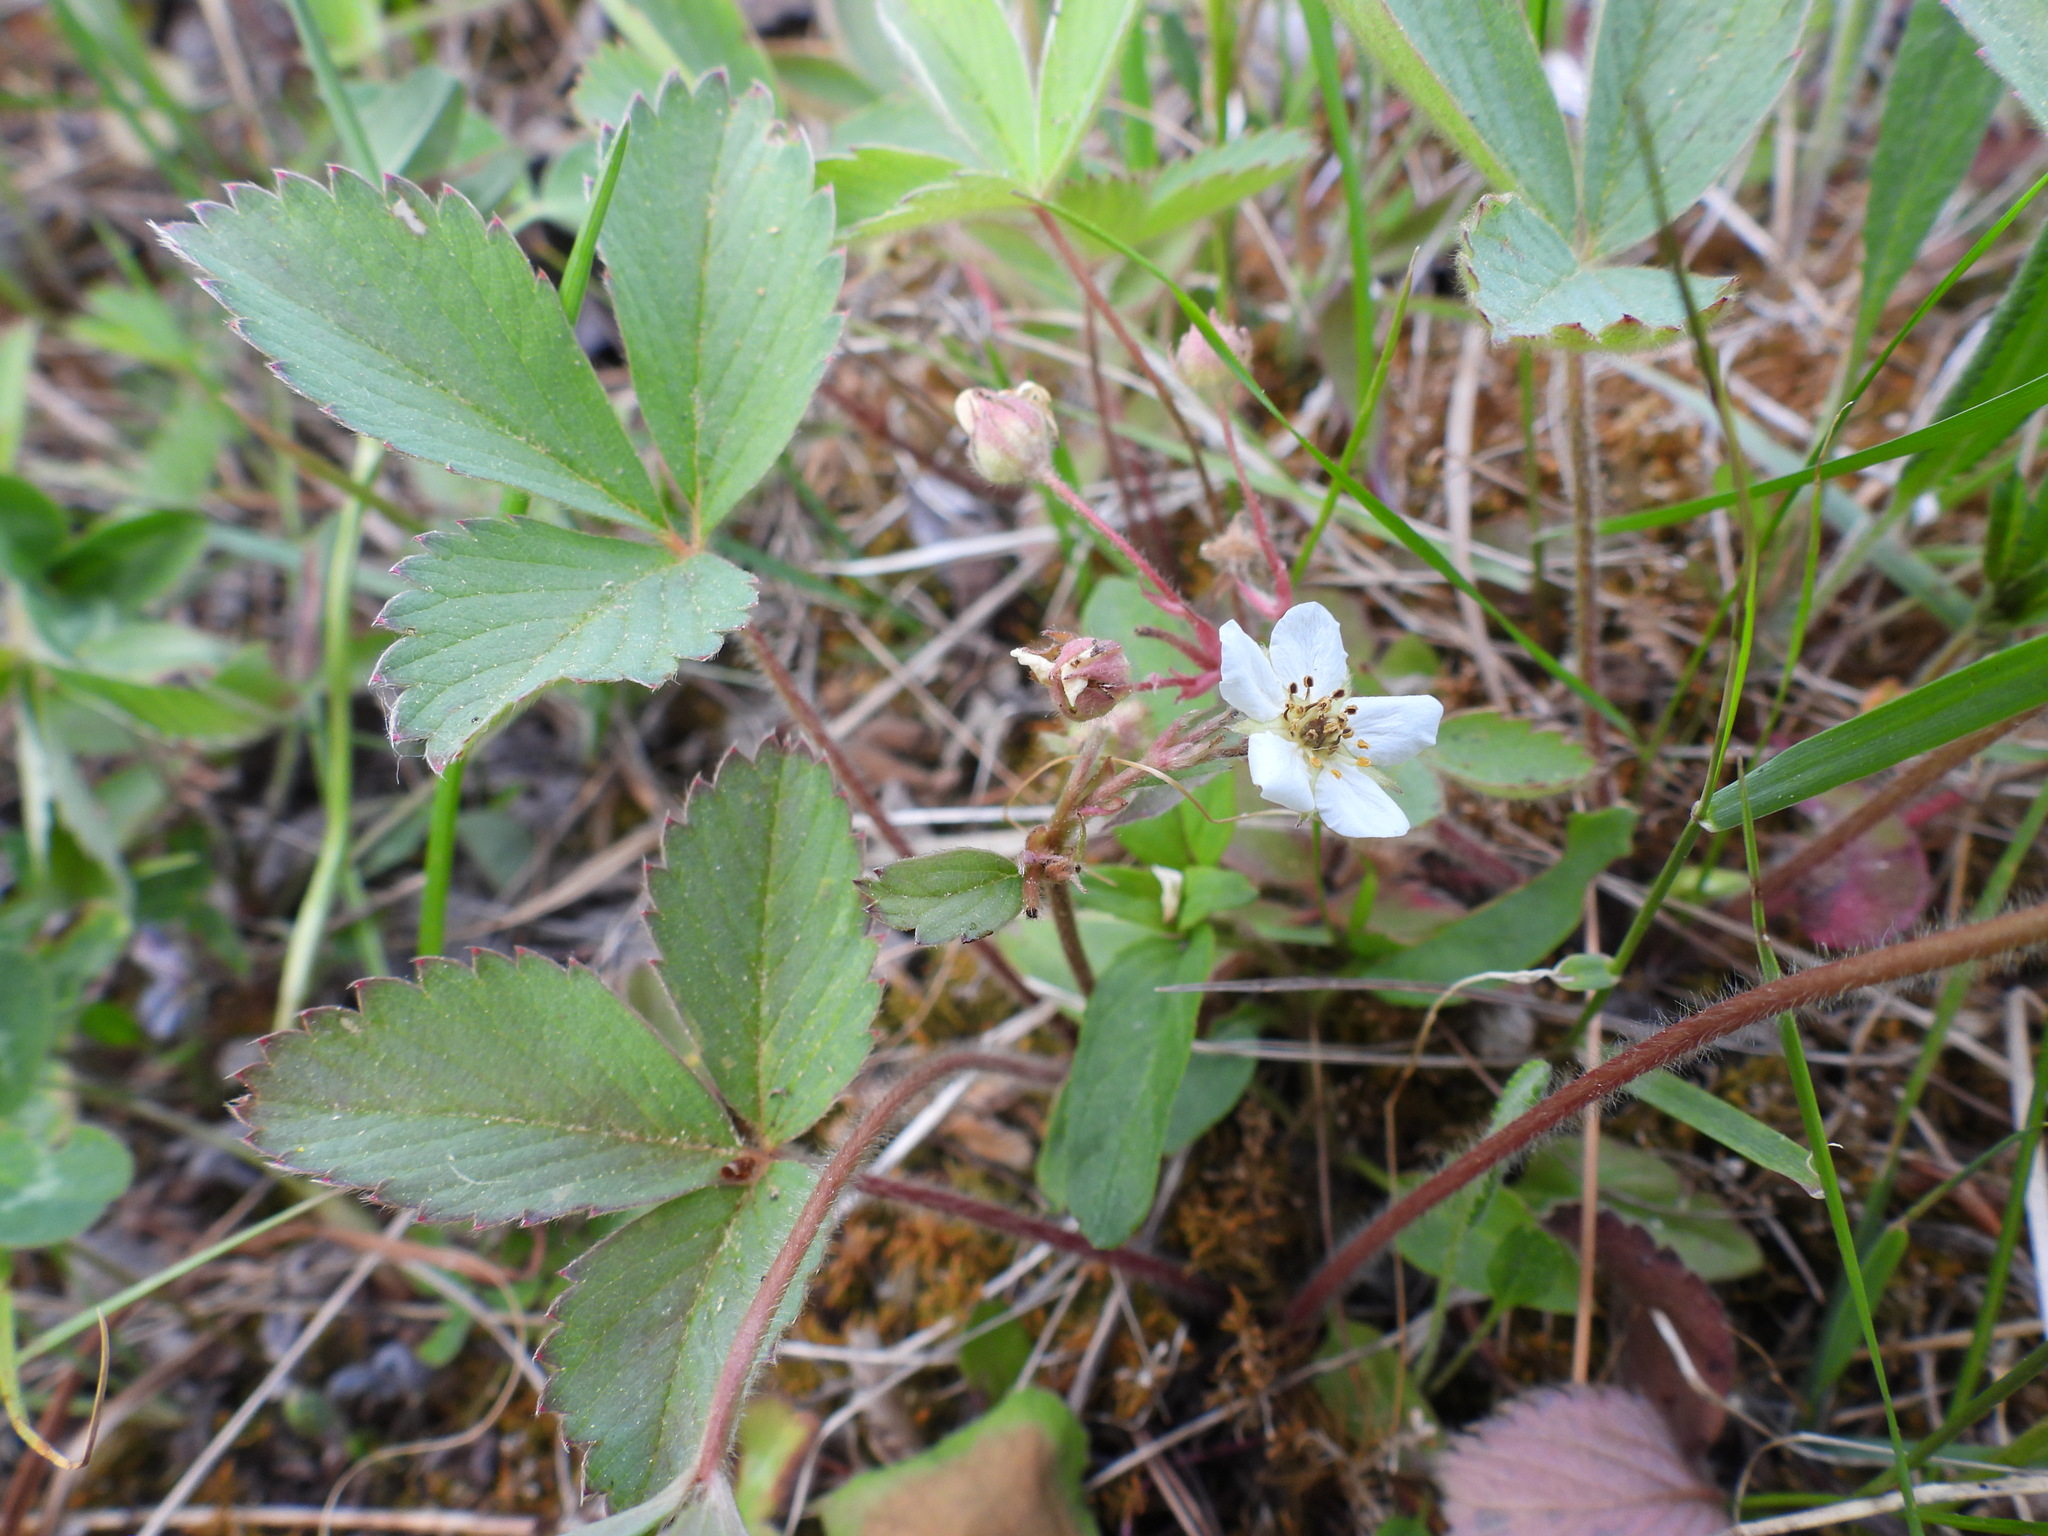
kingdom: Plantae
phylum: Tracheophyta
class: Magnoliopsida
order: Rosales
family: Rosaceae
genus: Fragaria
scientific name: Fragaria virginiana
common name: Thickleaved wild strawberry
